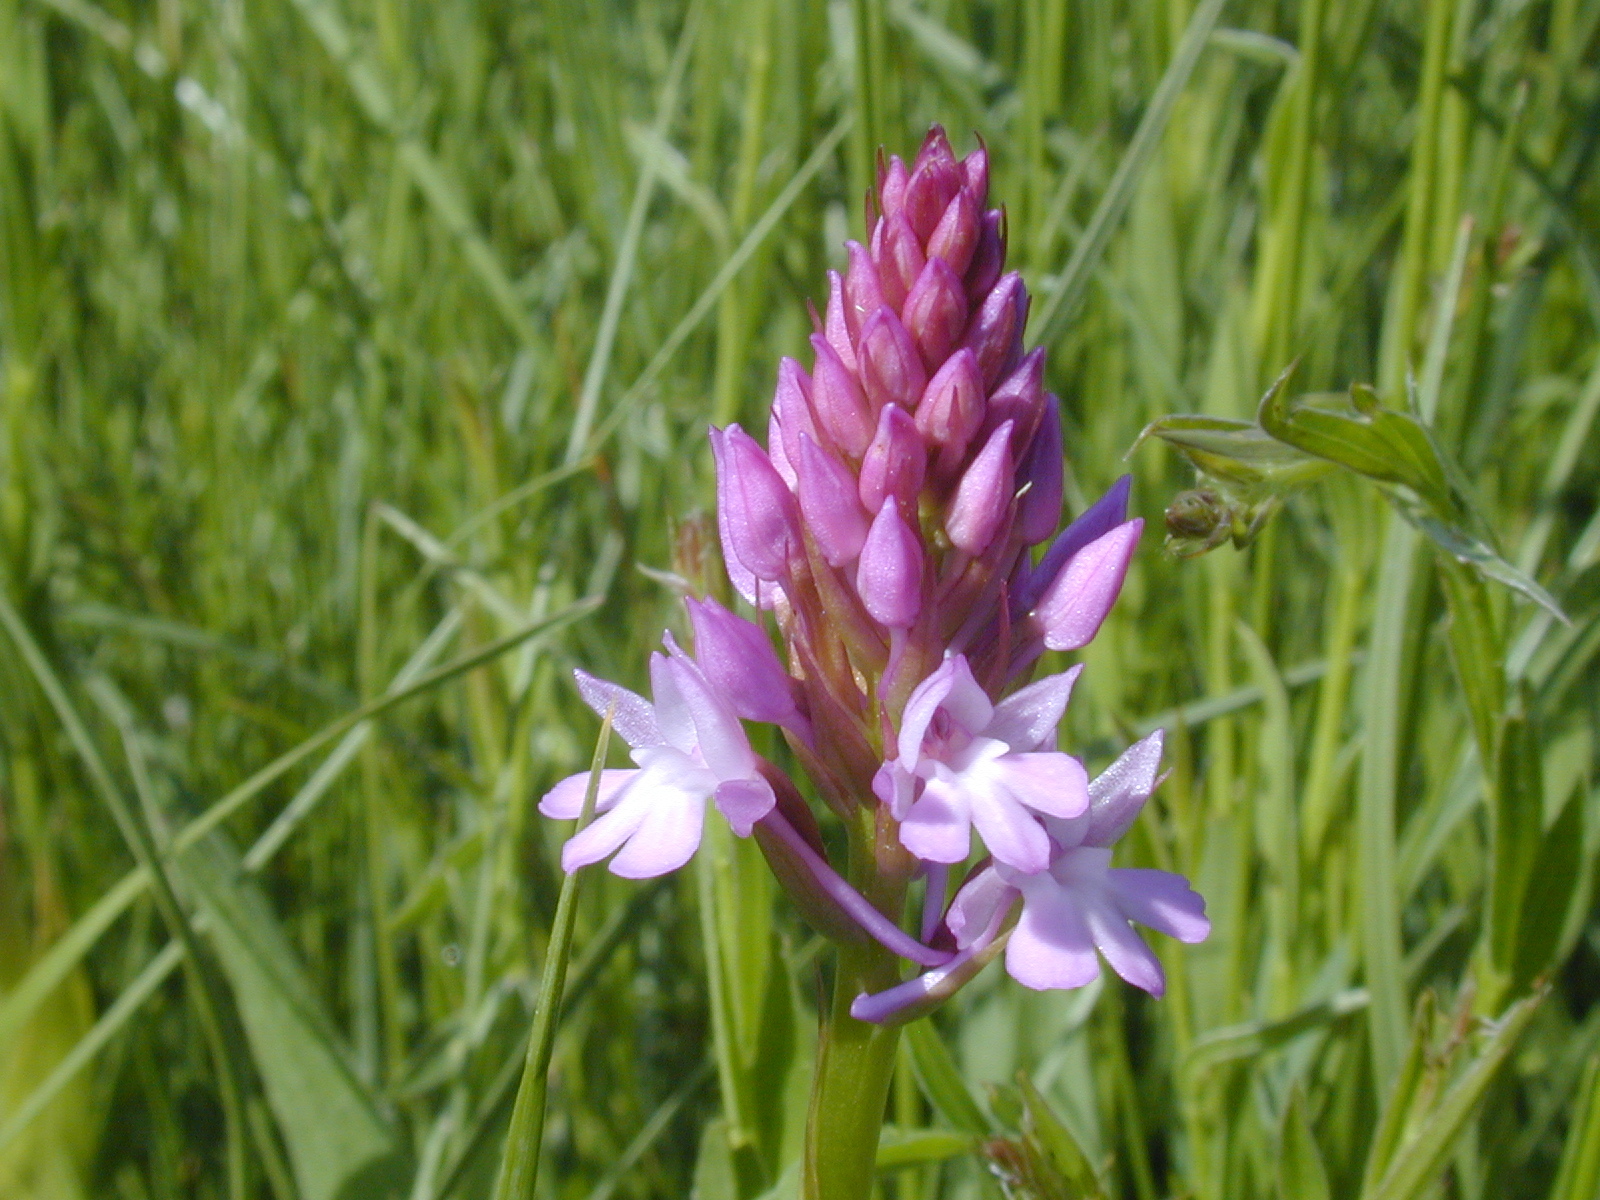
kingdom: Plantae
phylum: Tracheophyta
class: Liliopsida
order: Asparagales
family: Orchidaceae
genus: Anacamptis
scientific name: Anacamptis pyramidalis
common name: Pyramidal orchid
